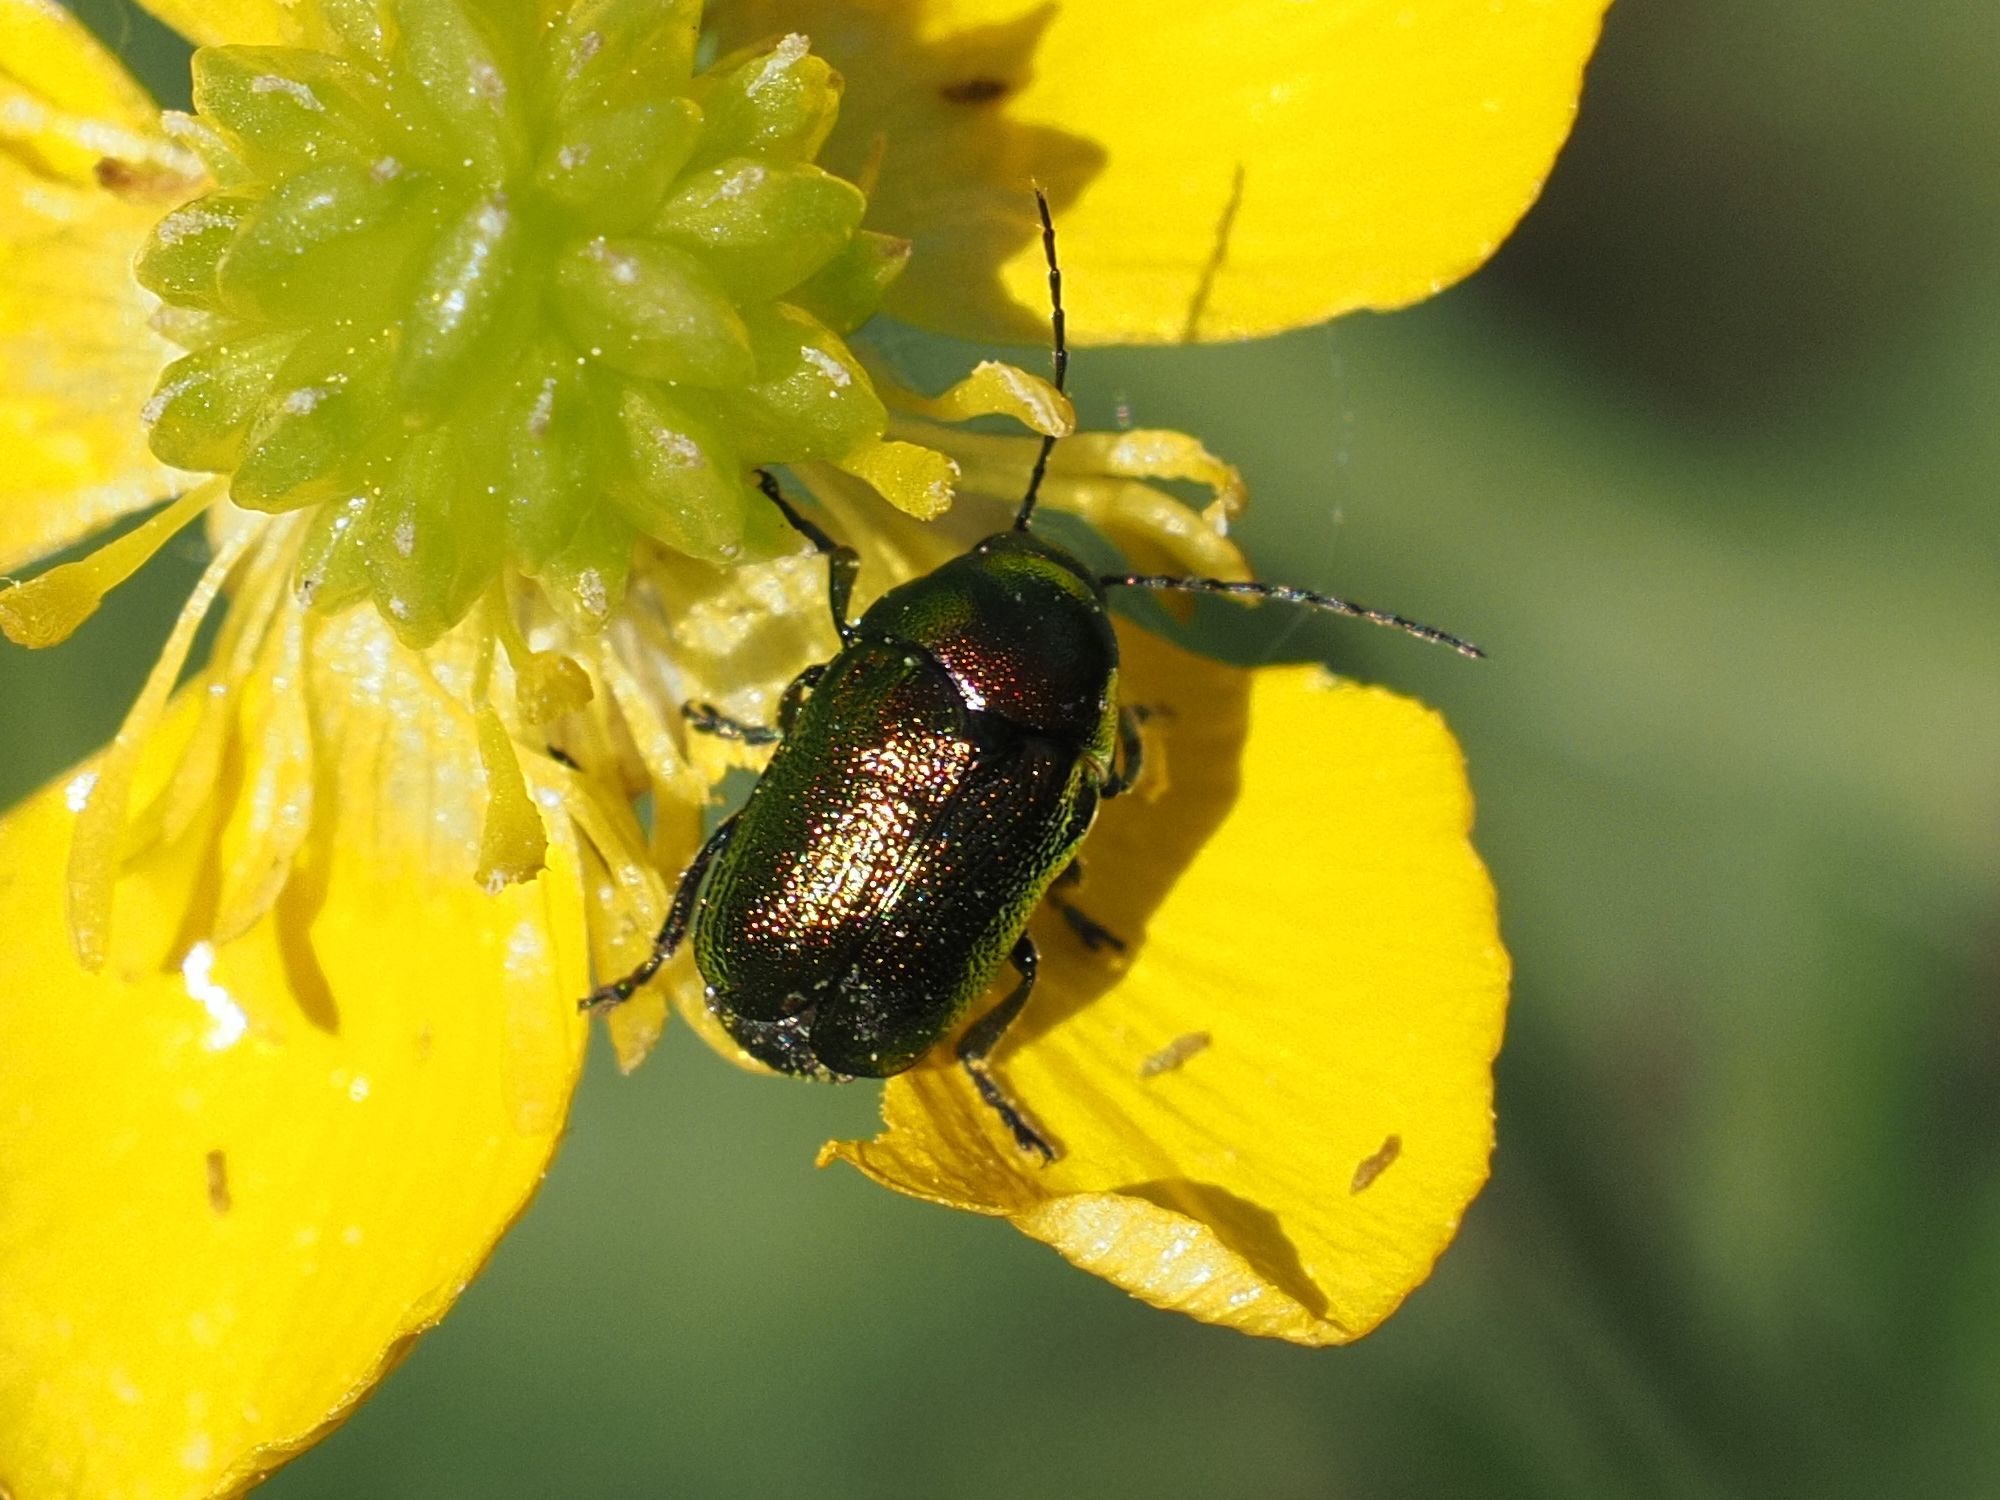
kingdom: Animalia
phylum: Arthropoda
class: Insecta
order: Coleoptera
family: Chrysomelidae
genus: Cryptocephalus
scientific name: Cryptocephalus
